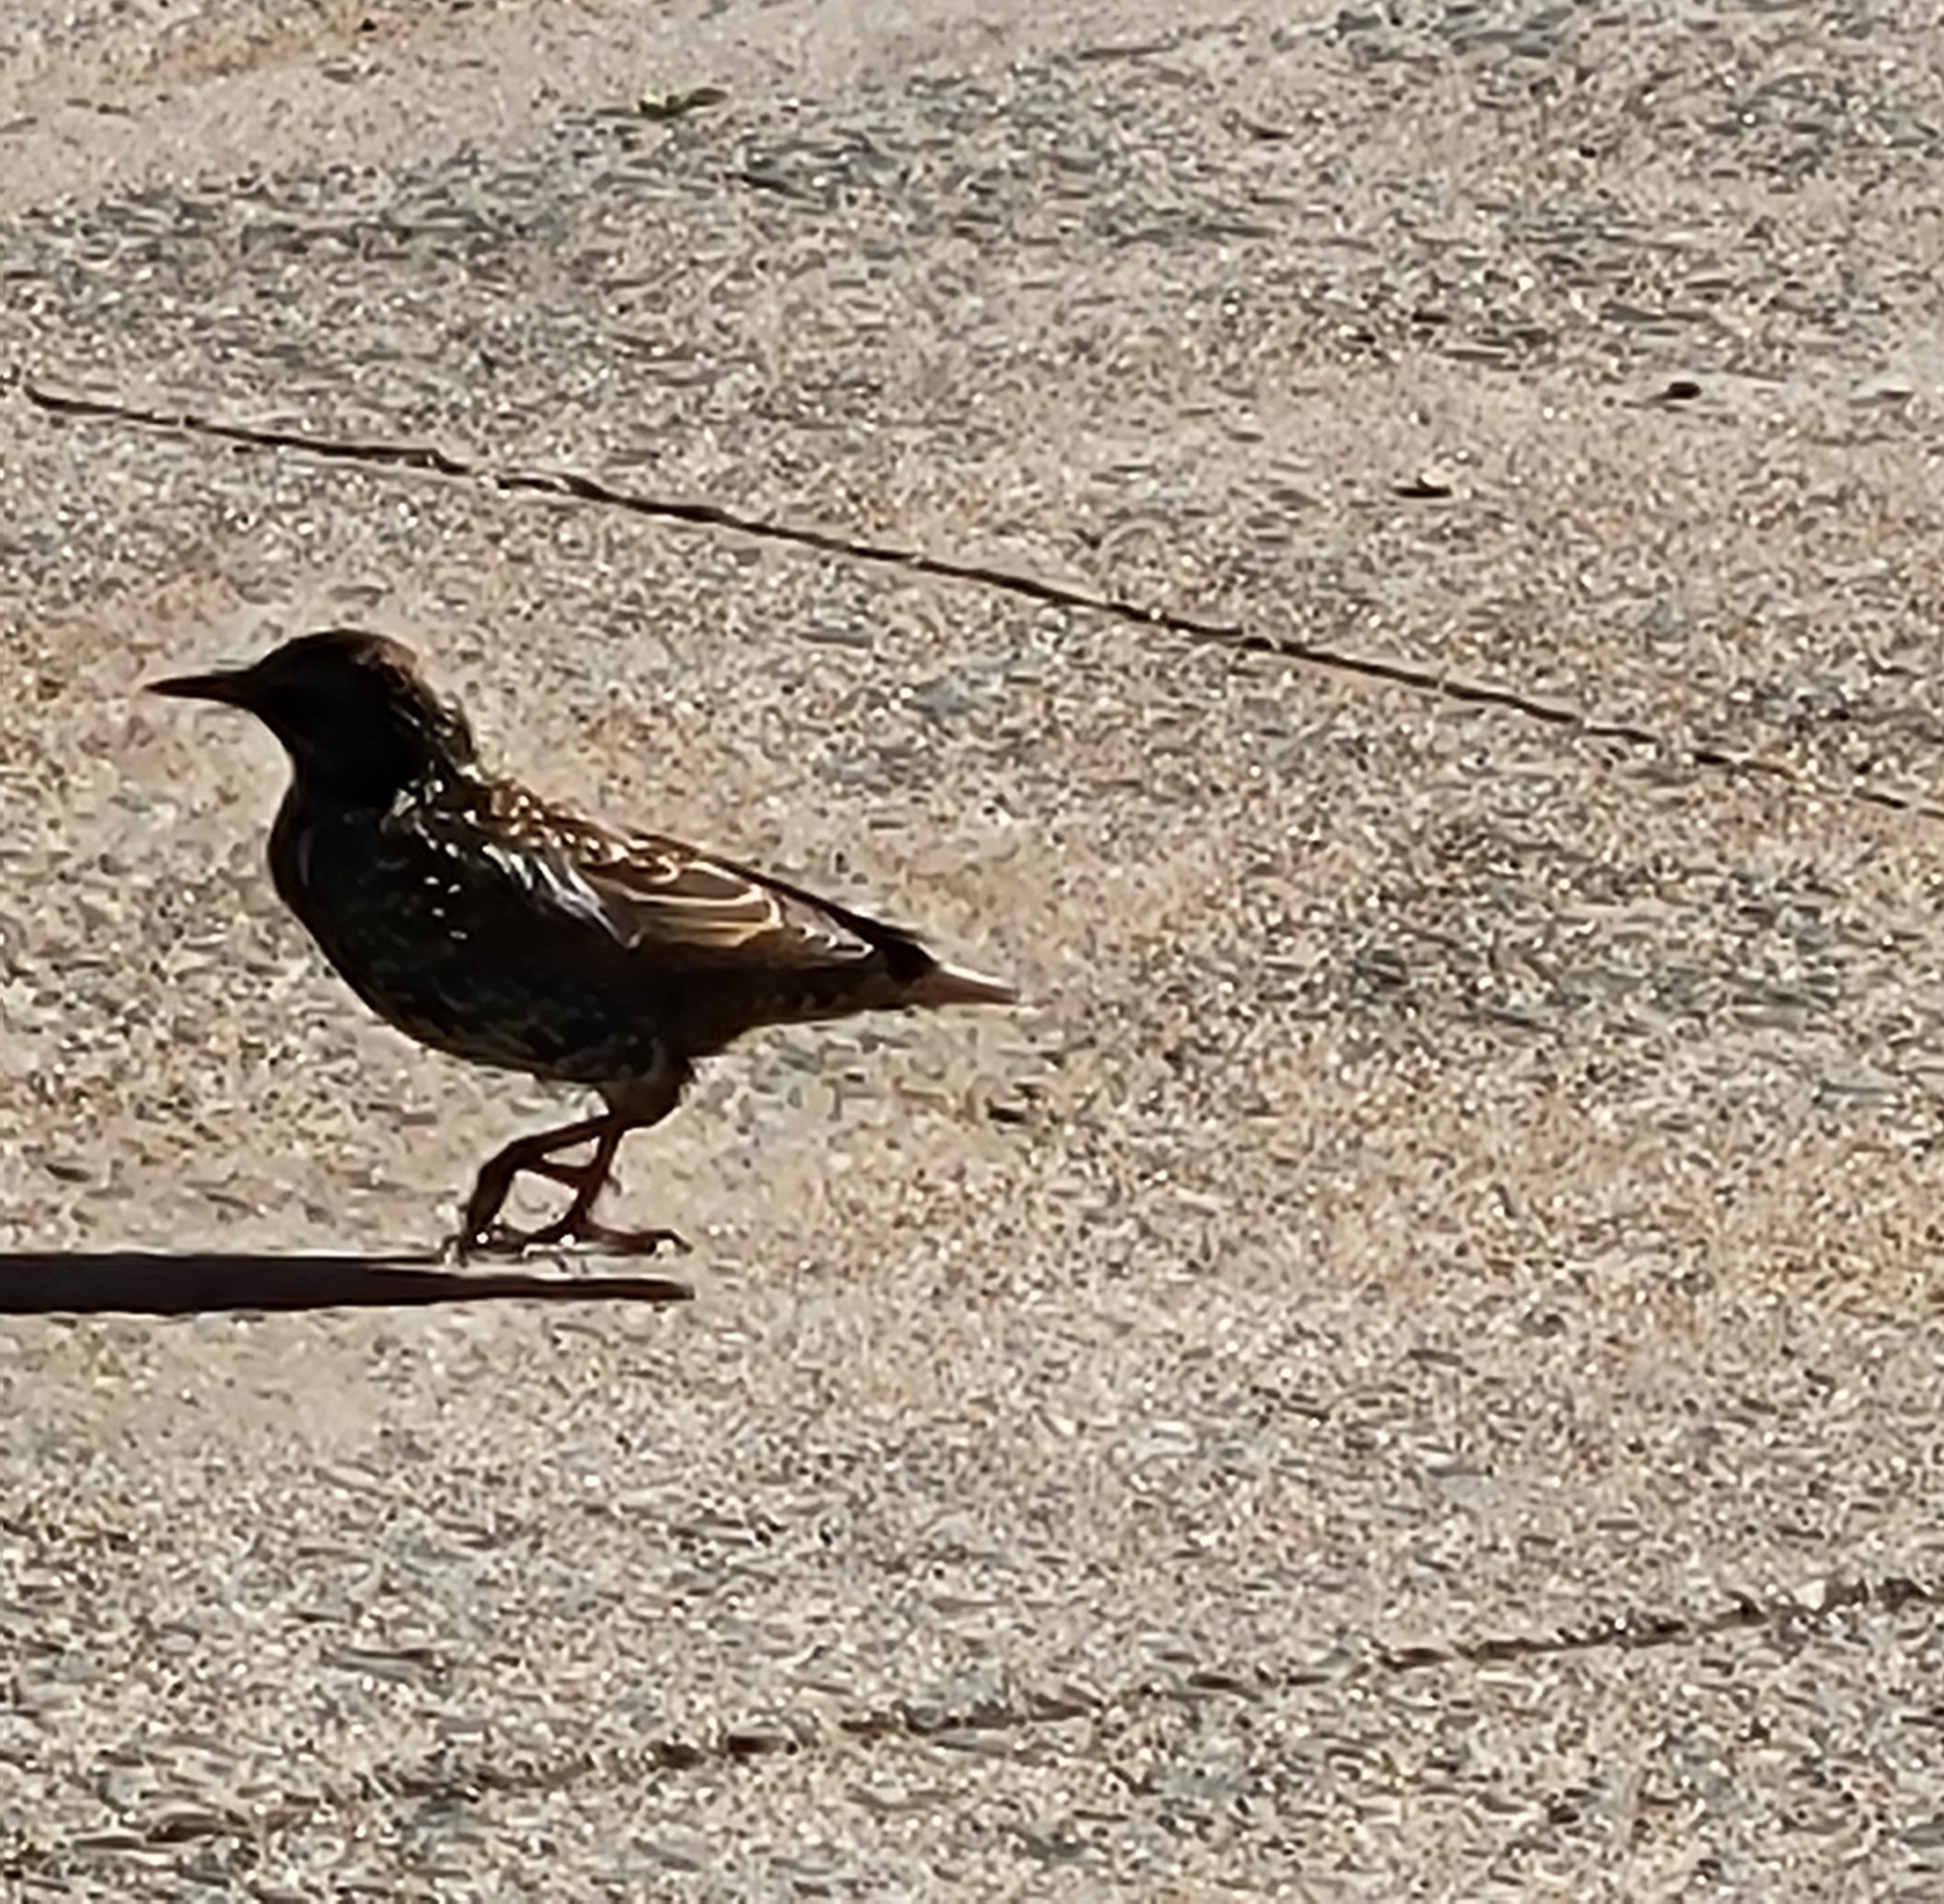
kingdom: Animalia
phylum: Chordata
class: Aves
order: Passeriformes
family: Sturnidae
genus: Sturnus
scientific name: Sturnus vulgaris
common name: Common starling
